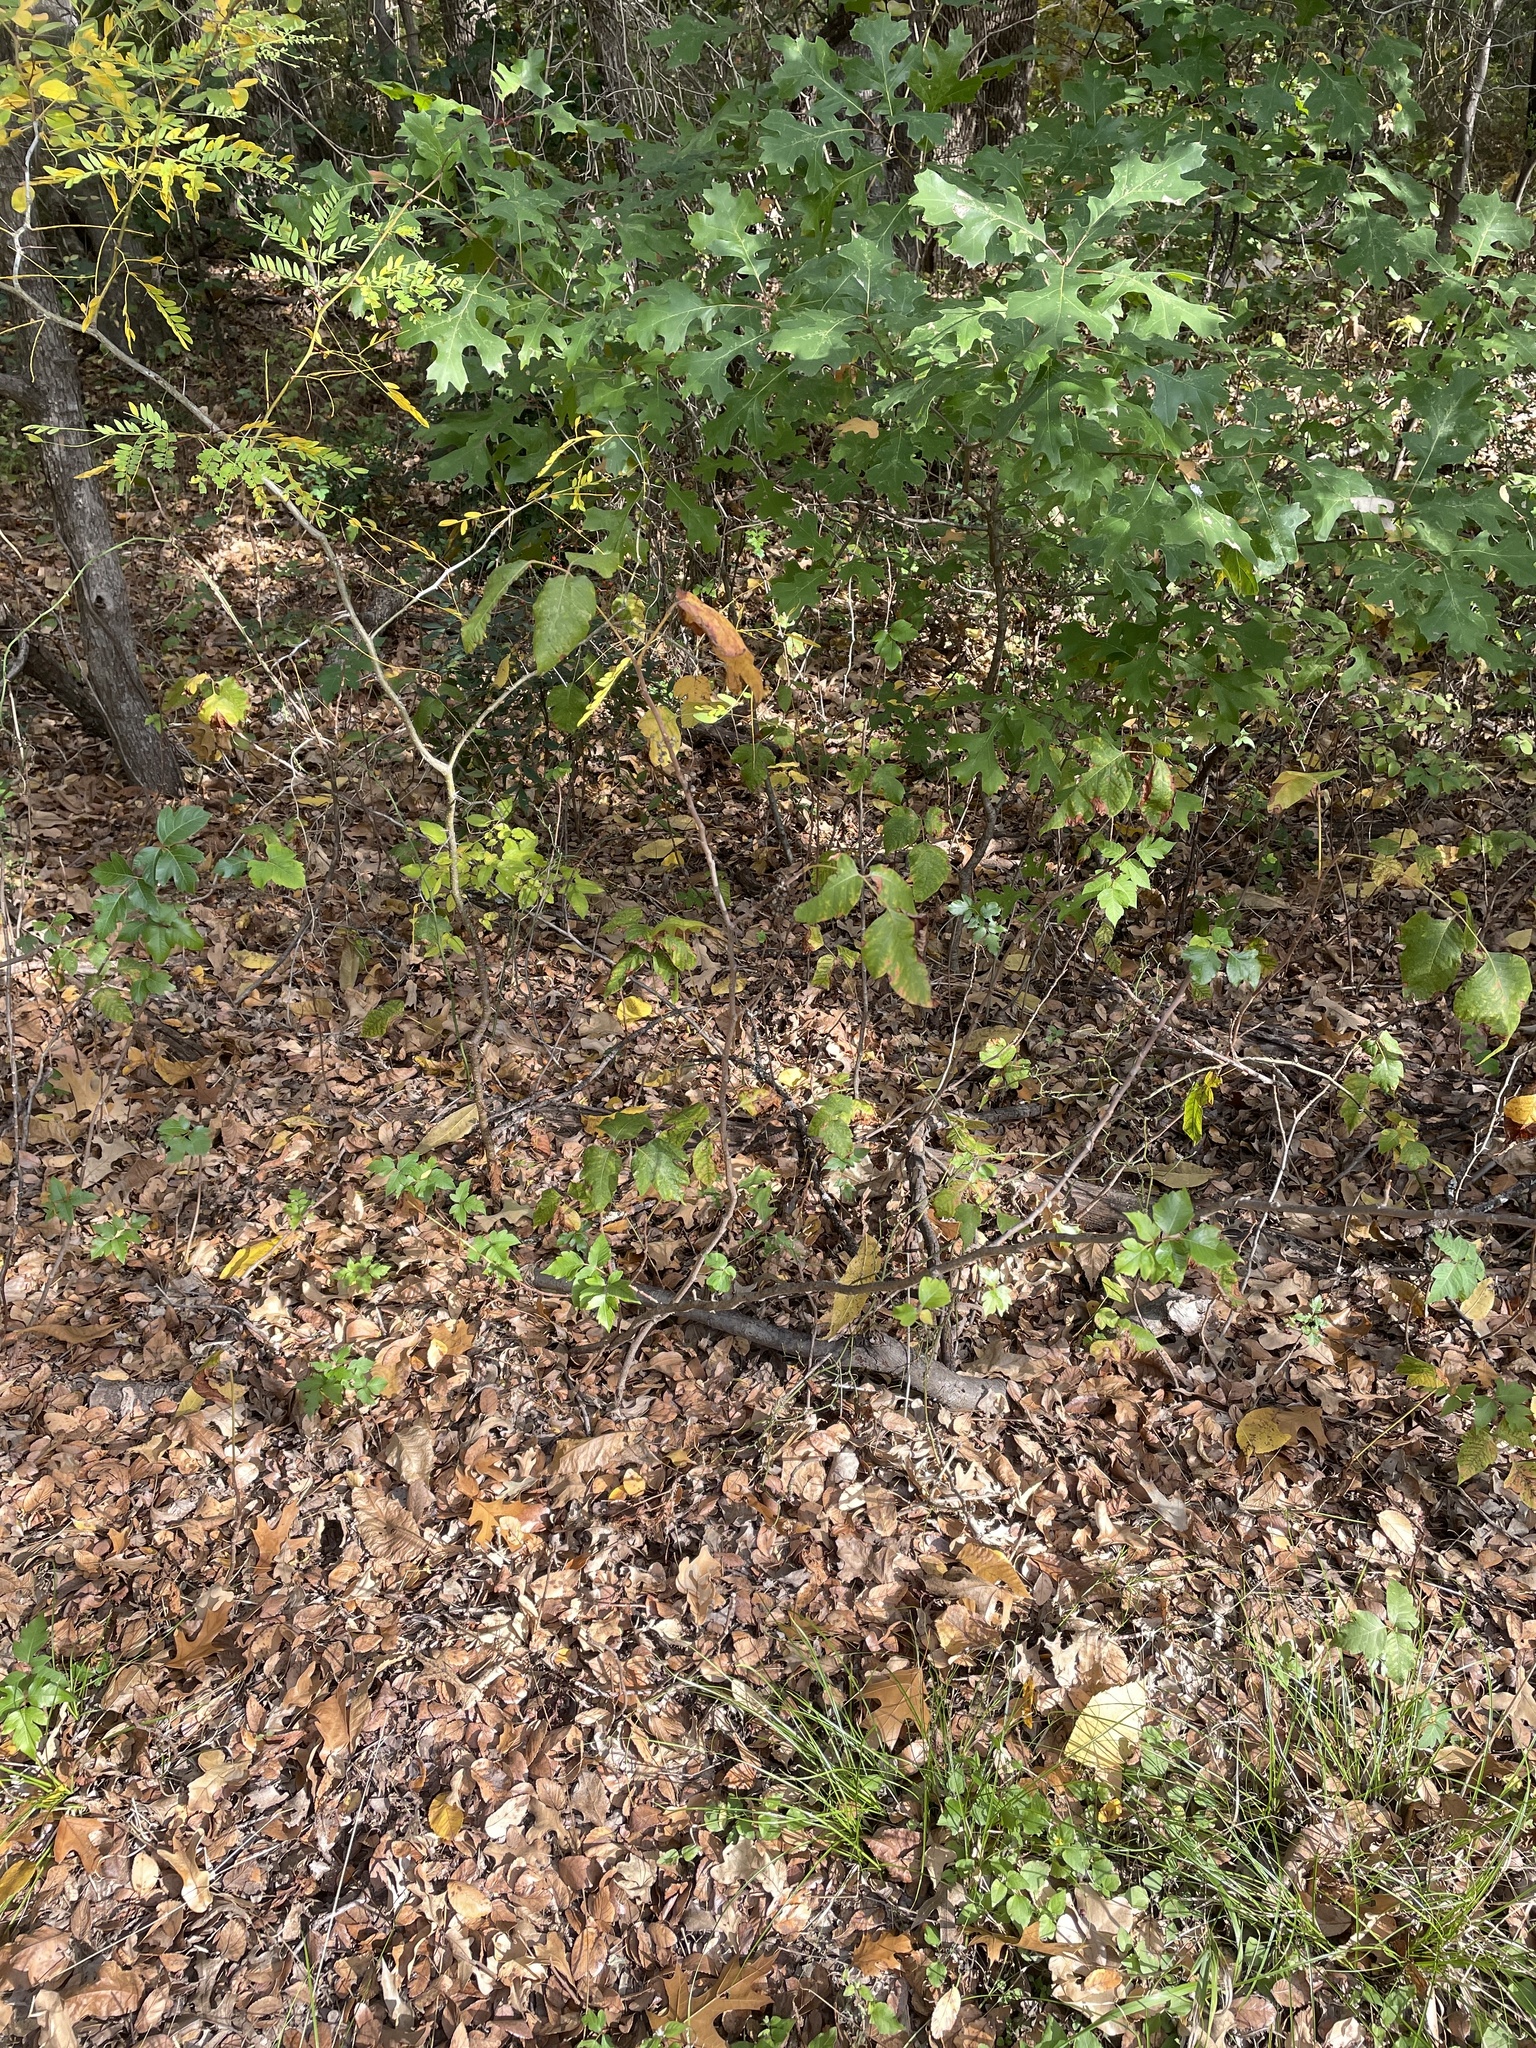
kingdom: Plantae
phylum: Tracheophyta
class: Magnoliopsida
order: Sapindales
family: Anacardiaceae
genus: Toxicodendron
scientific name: Toxicodendron radicans
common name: Poison ivy
